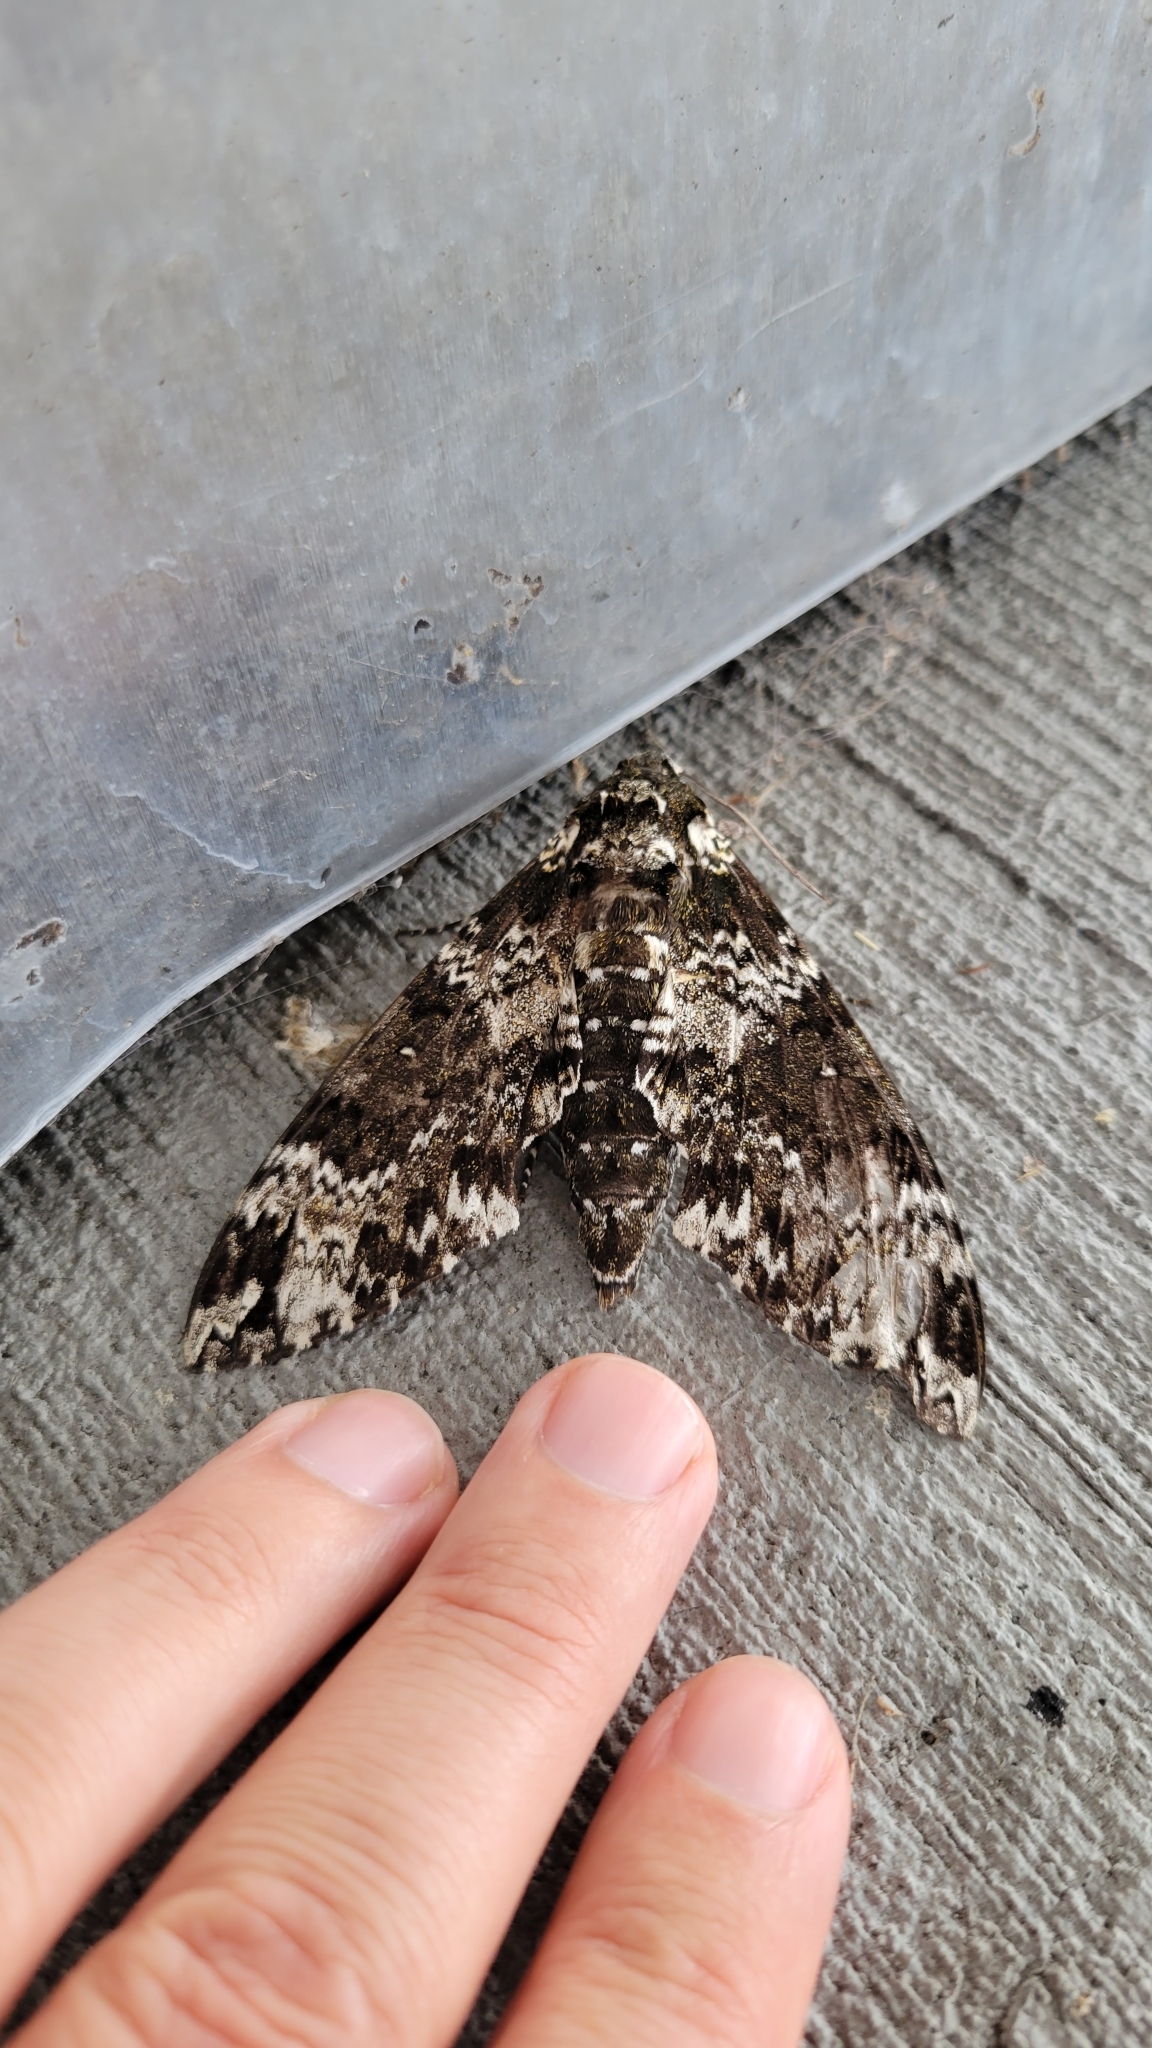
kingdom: Animalia
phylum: Arthropoda
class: Insecta
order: Lepidoptera
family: Sphingidae
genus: Manduca
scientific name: Manduca rustica
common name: Rustic sphinx
